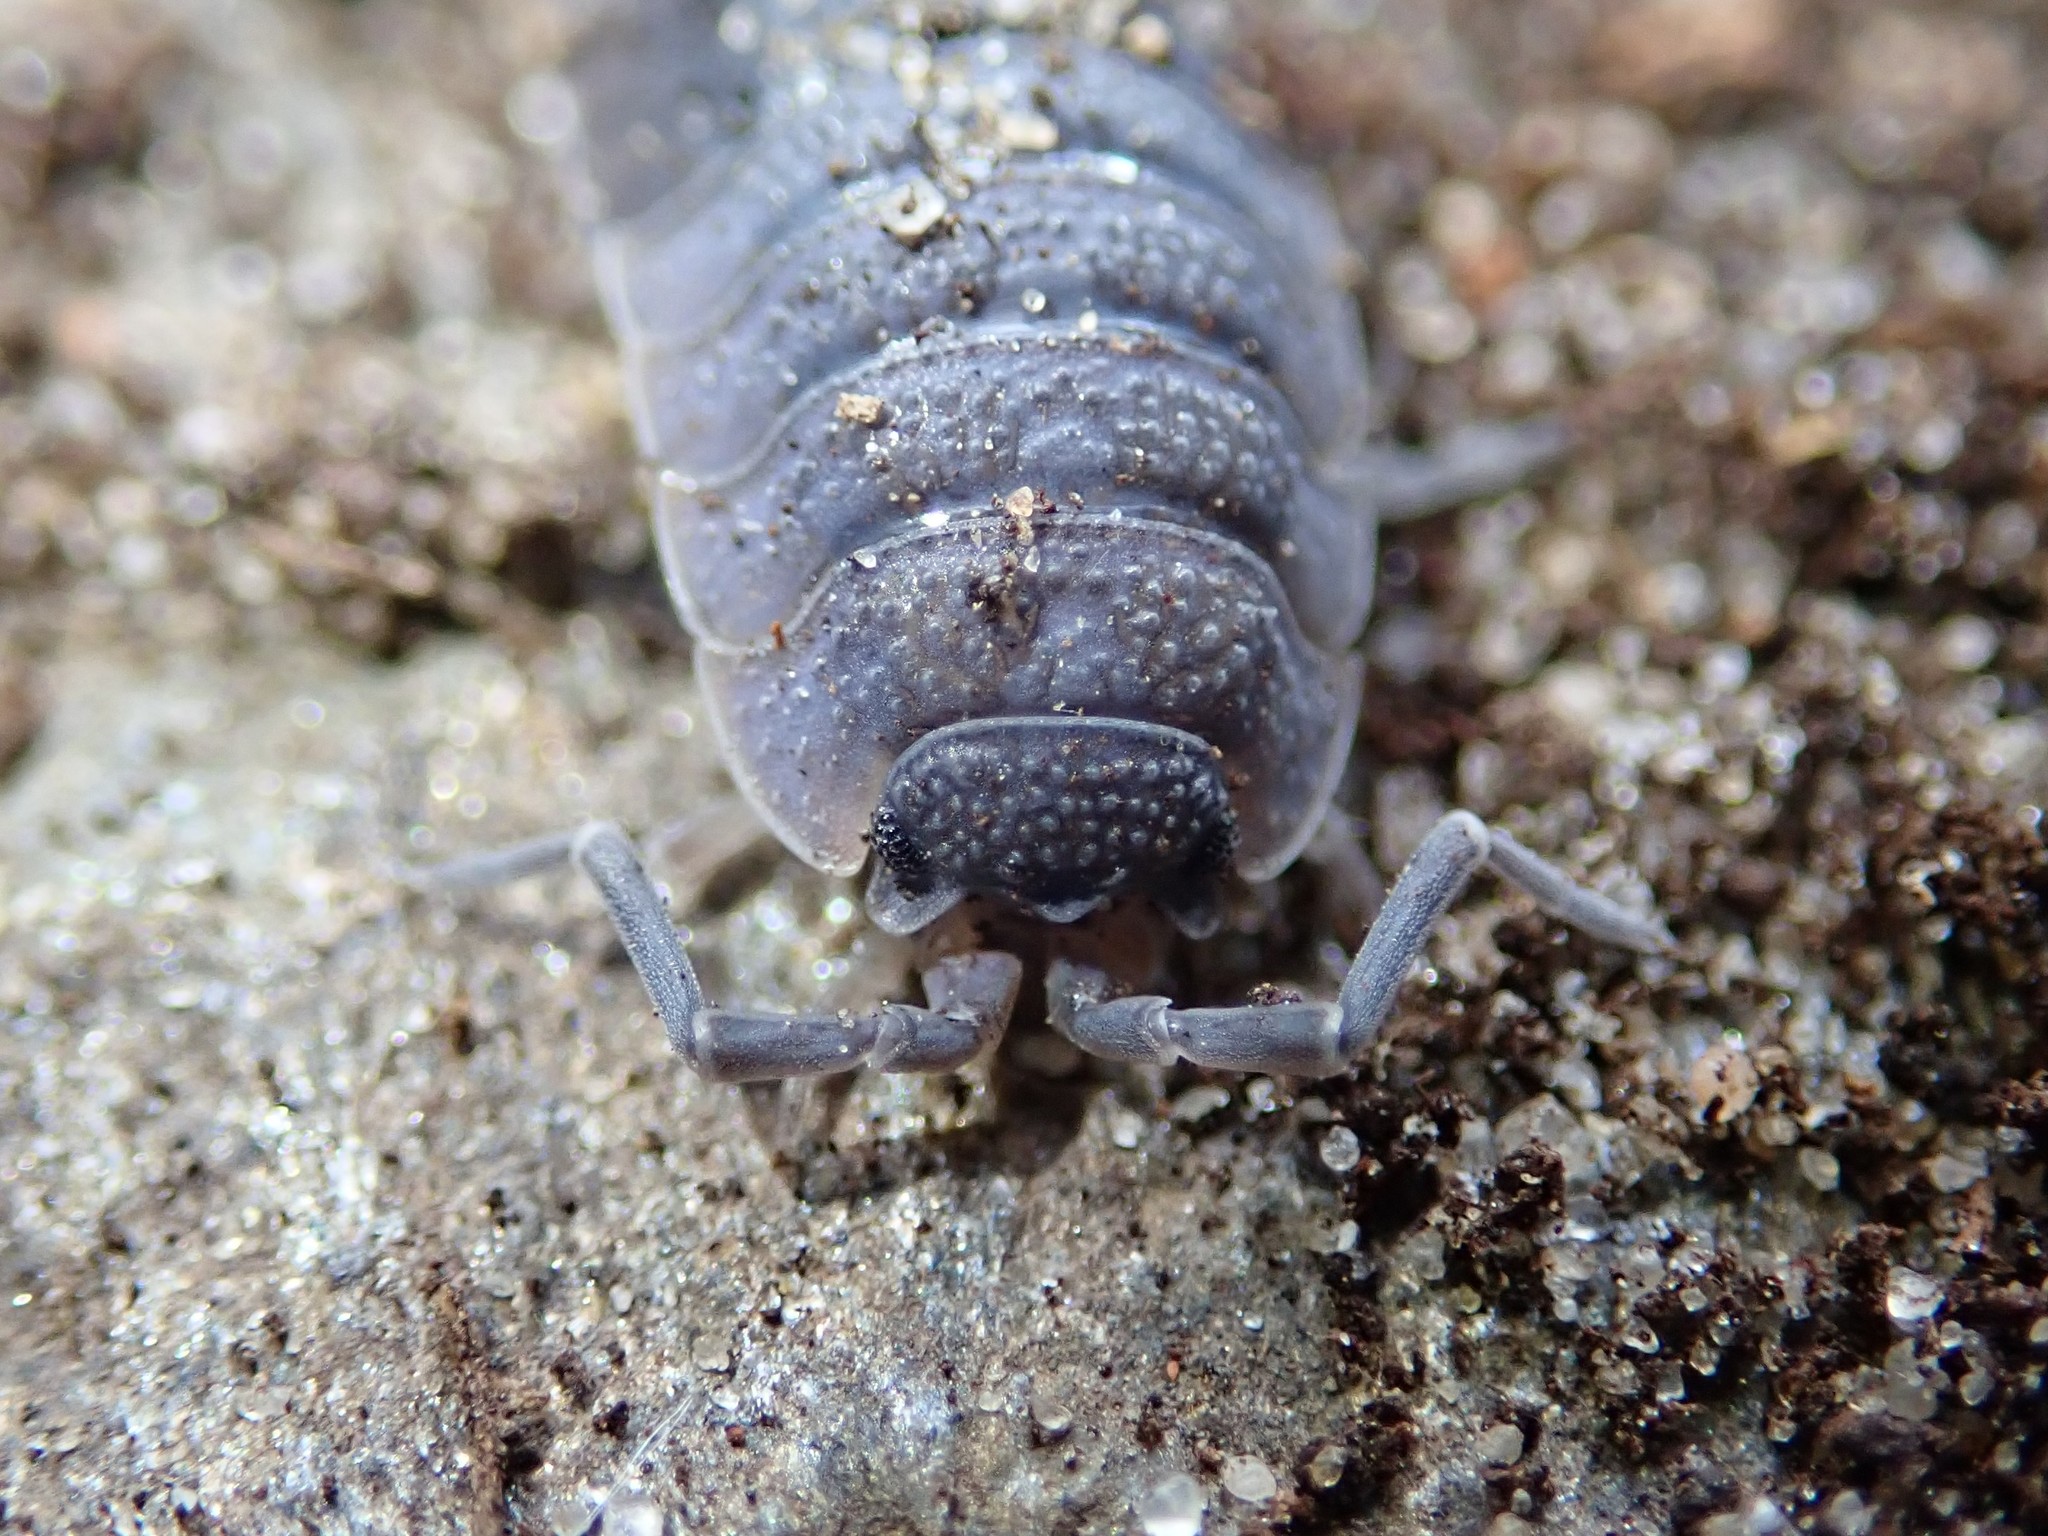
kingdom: Animalia
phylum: Arthropoda
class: Malacostraca
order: Isopoda
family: Porcellionidae
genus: Porcellio
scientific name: Porcellio scaber
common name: Common rough woodlouse
